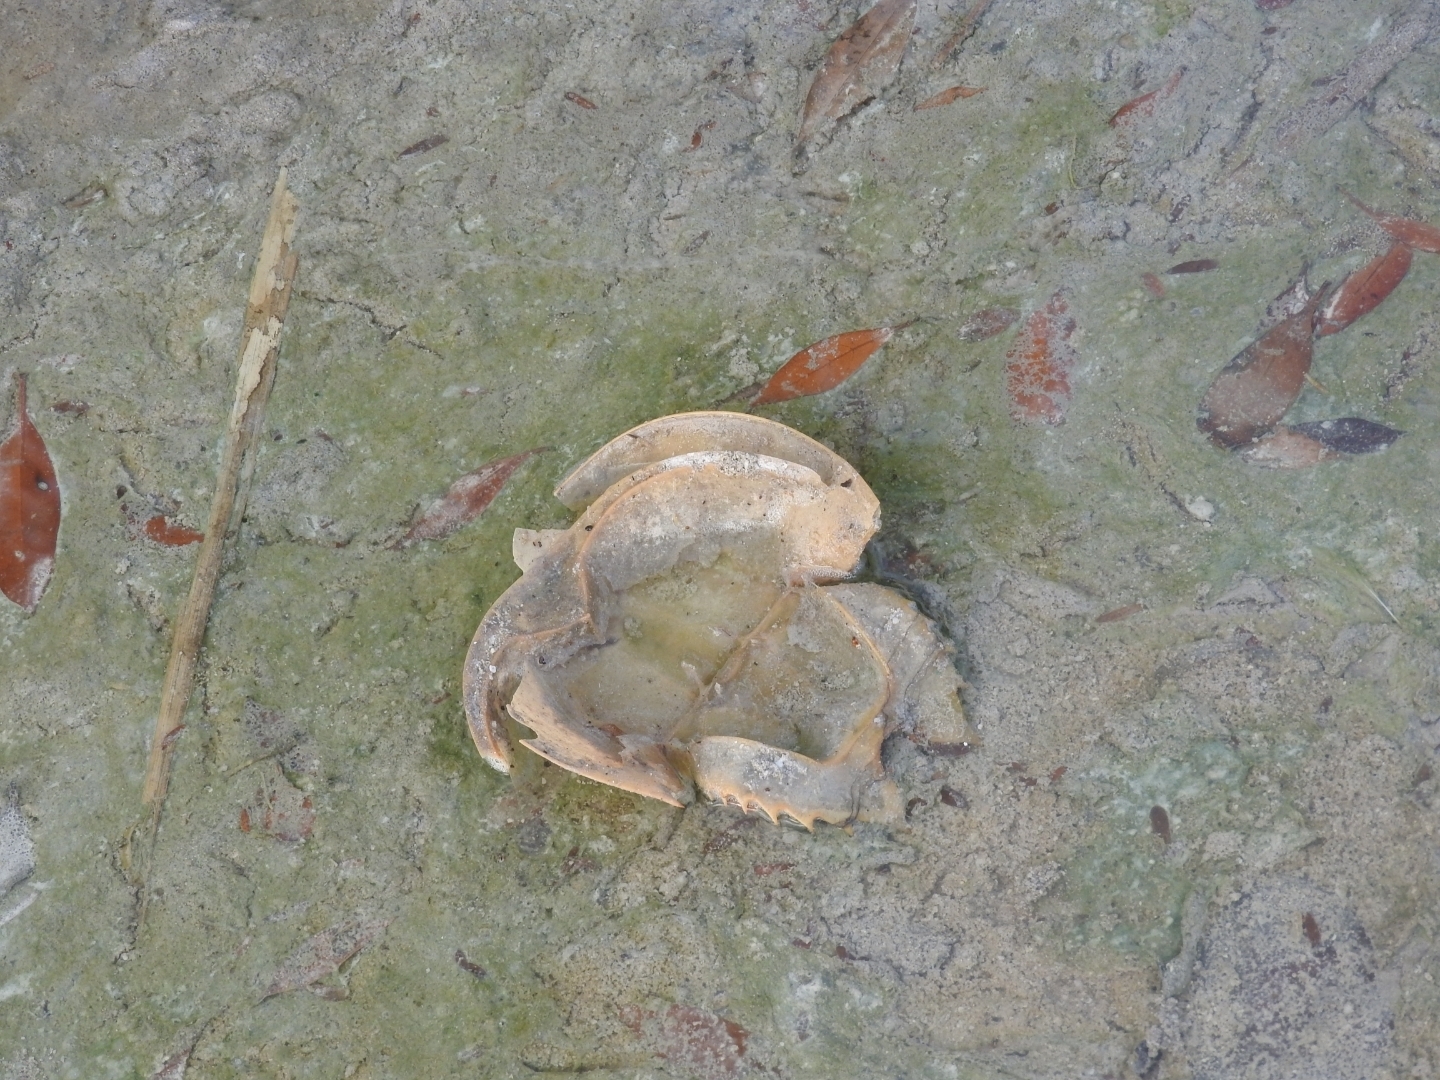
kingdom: Animalia
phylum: Arthropoda
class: Merostomata
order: Xiphosurida
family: Limulidae
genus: Limulus
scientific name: Limulus polyphemus
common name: Horseshoe crab
